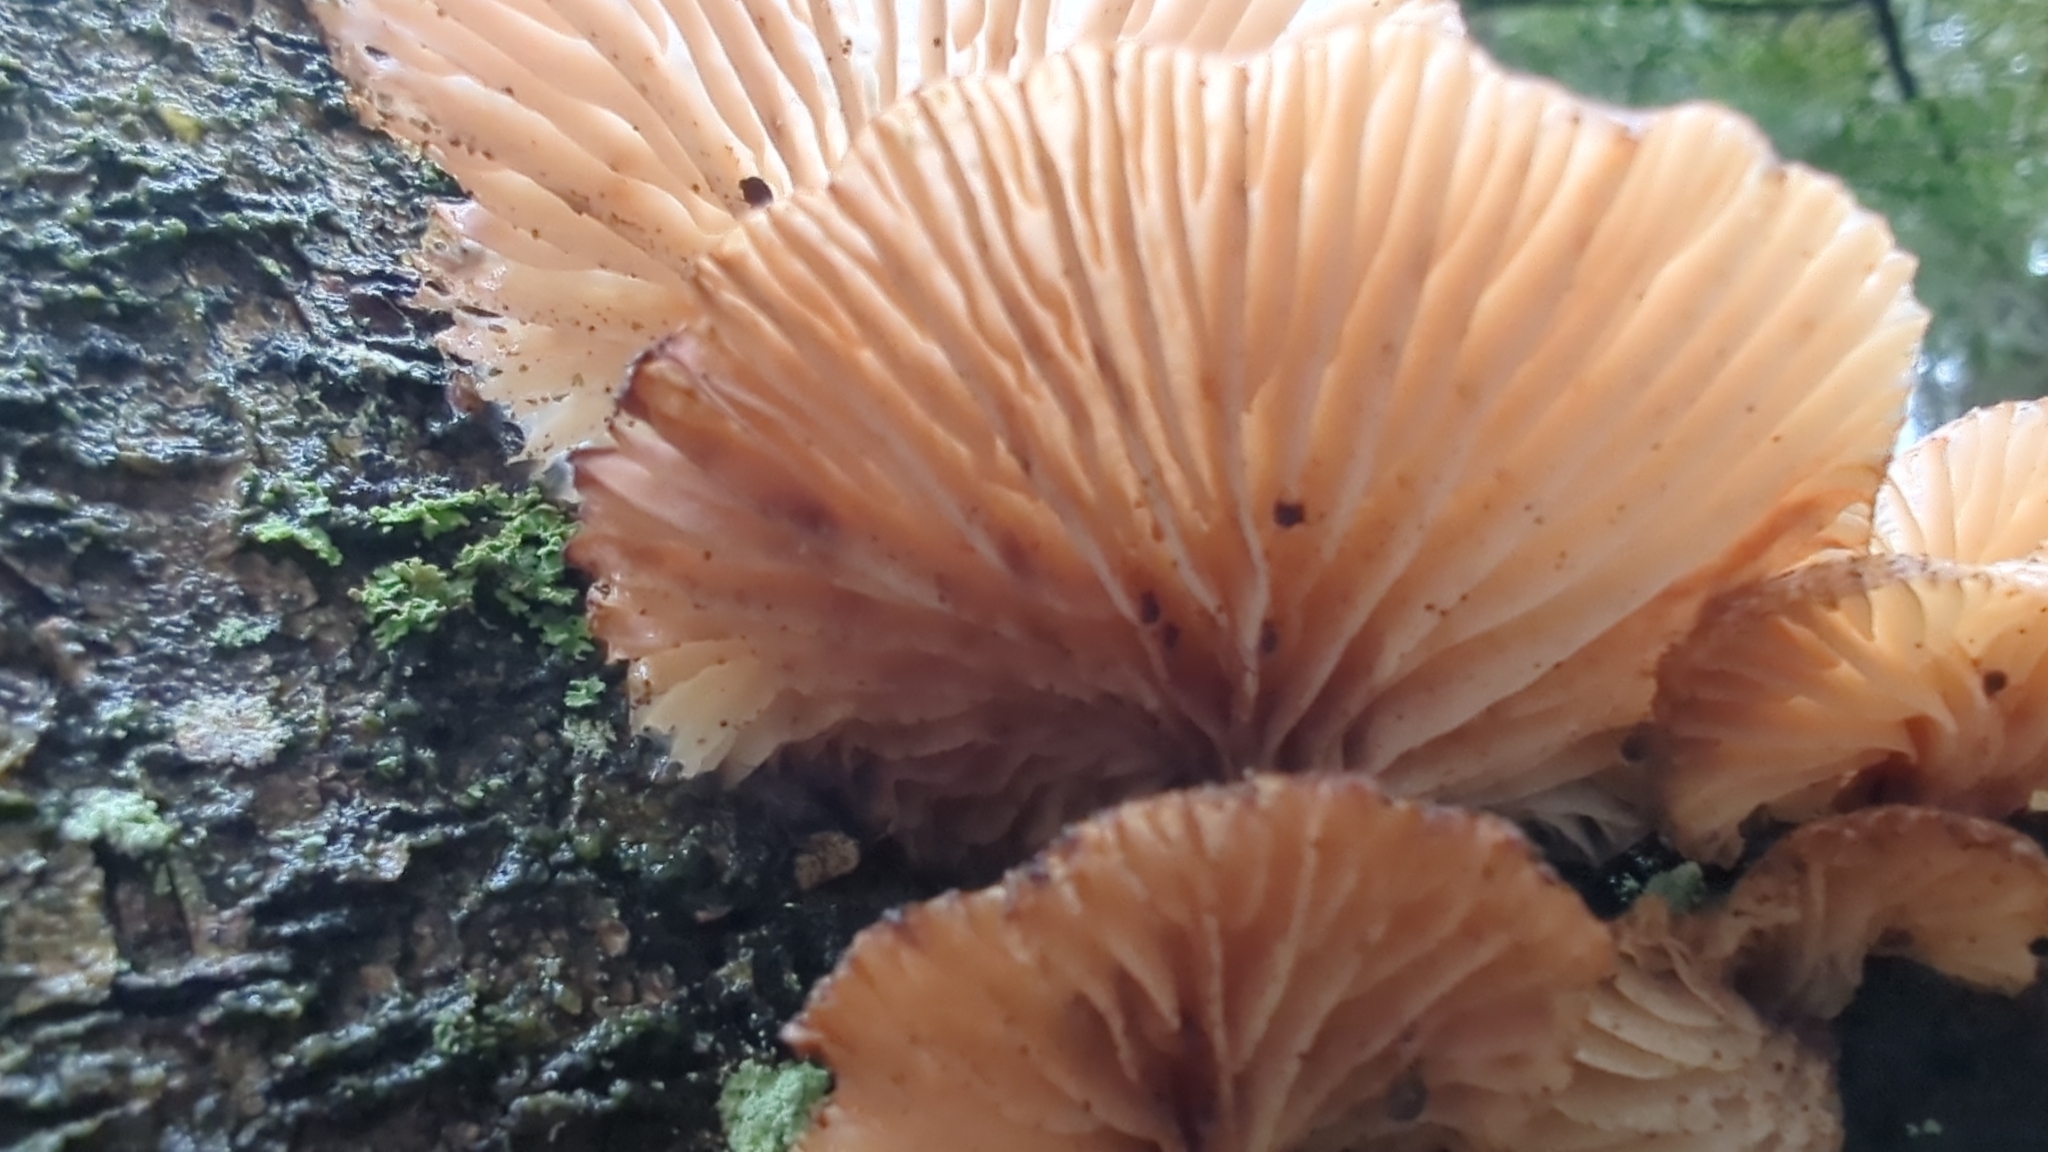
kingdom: Fungi
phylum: Basidiomycota
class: Agaricomycetes
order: Agaricales
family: Mycenaceae
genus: Panellus
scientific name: Panellus longinquus
